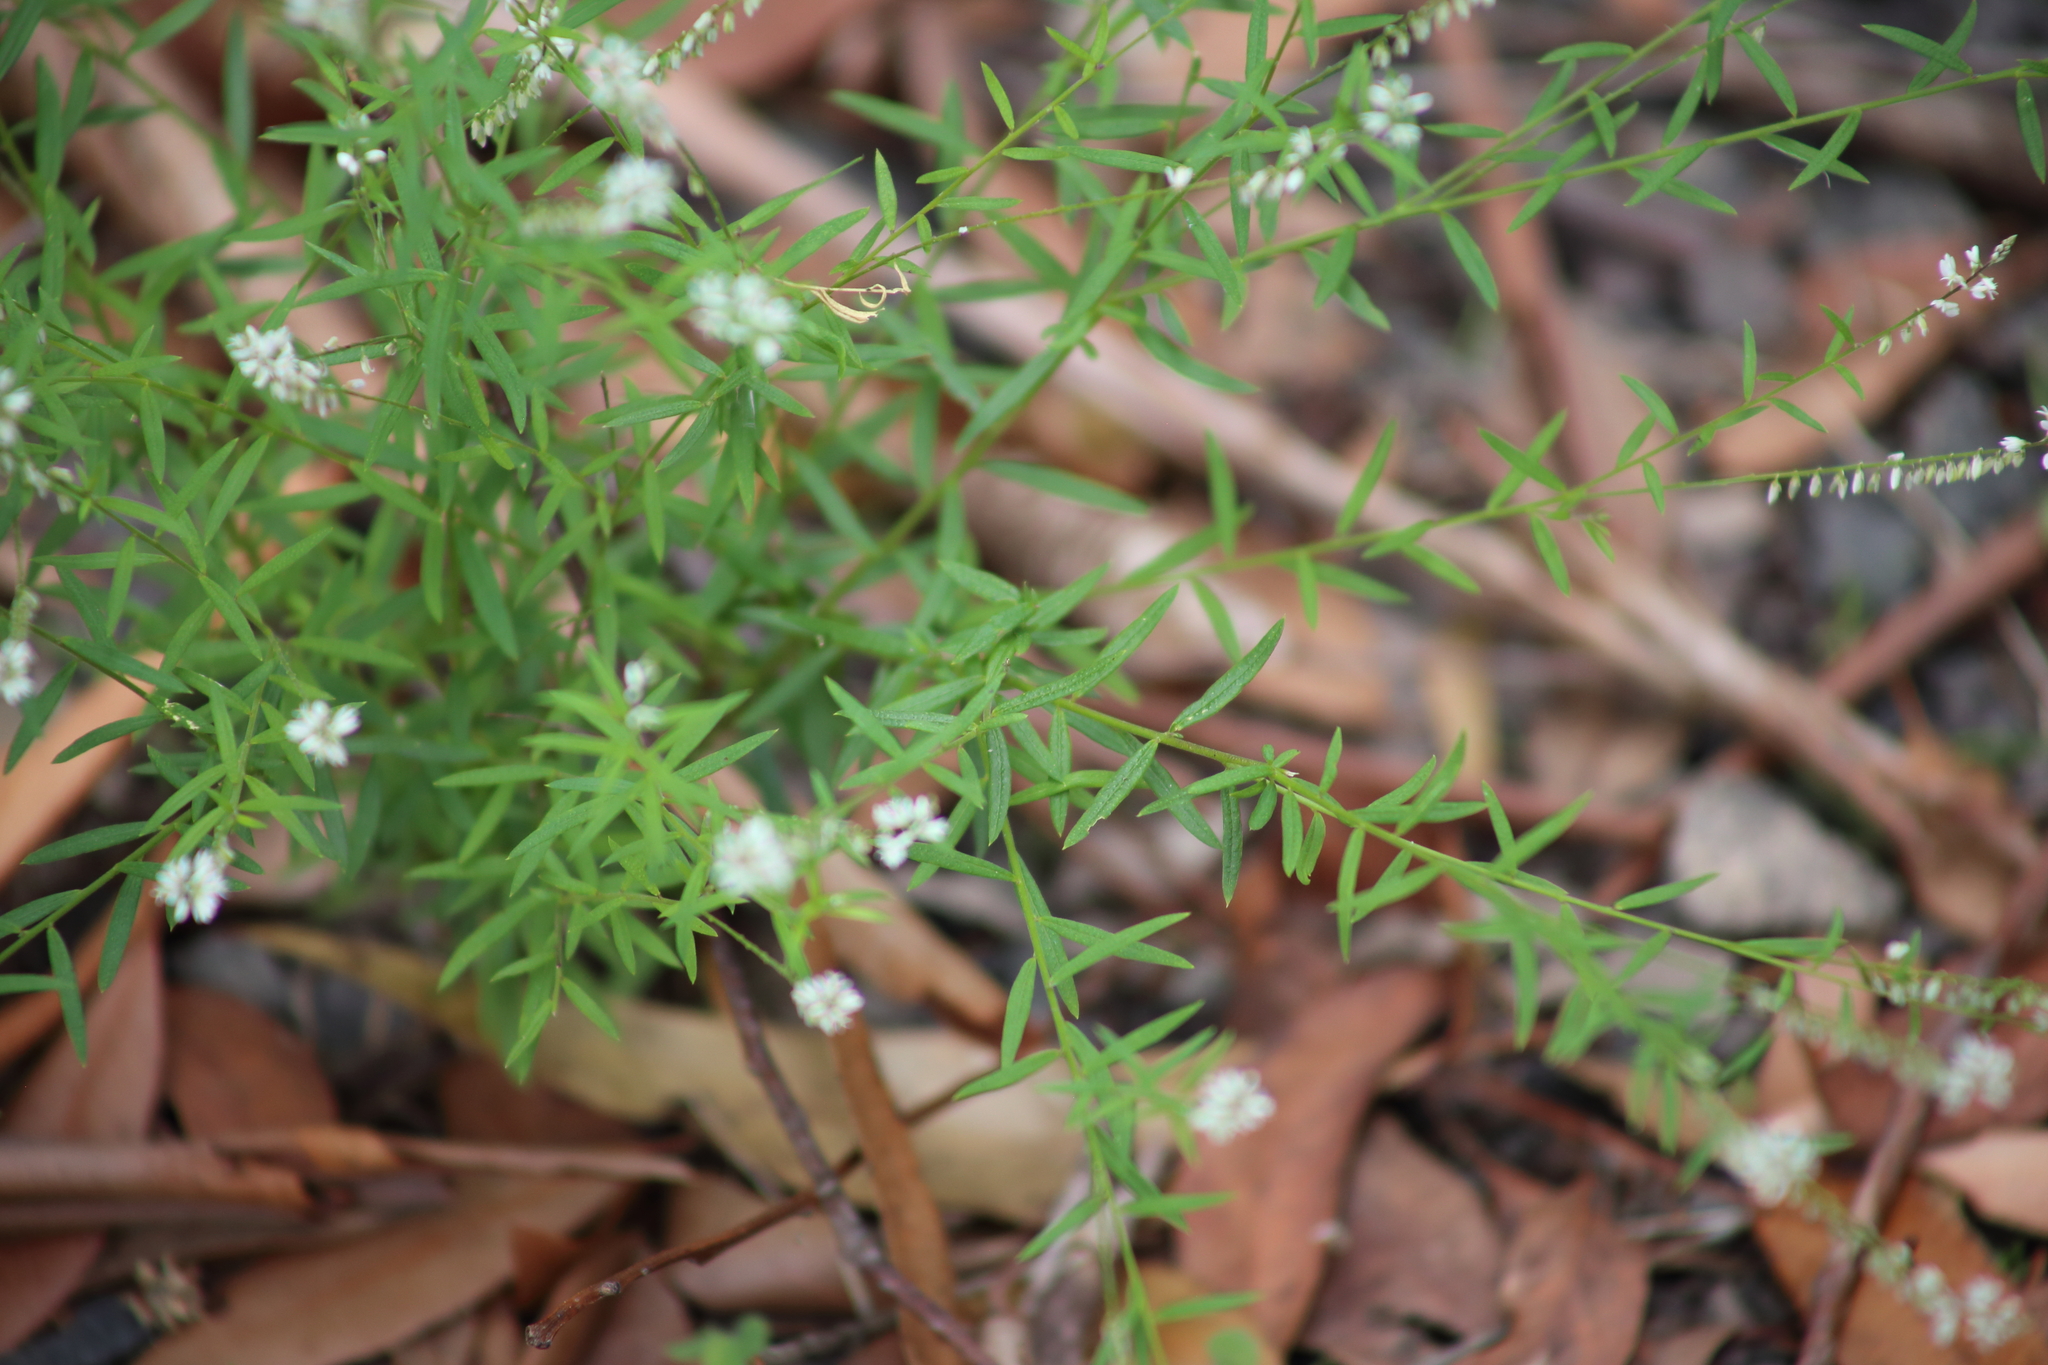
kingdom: Plantae
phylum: Tracheophyta
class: Magnoliopsida
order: Fabales
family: Polygalaceae
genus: Polygala
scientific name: Polygala paniculata
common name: Orosne
